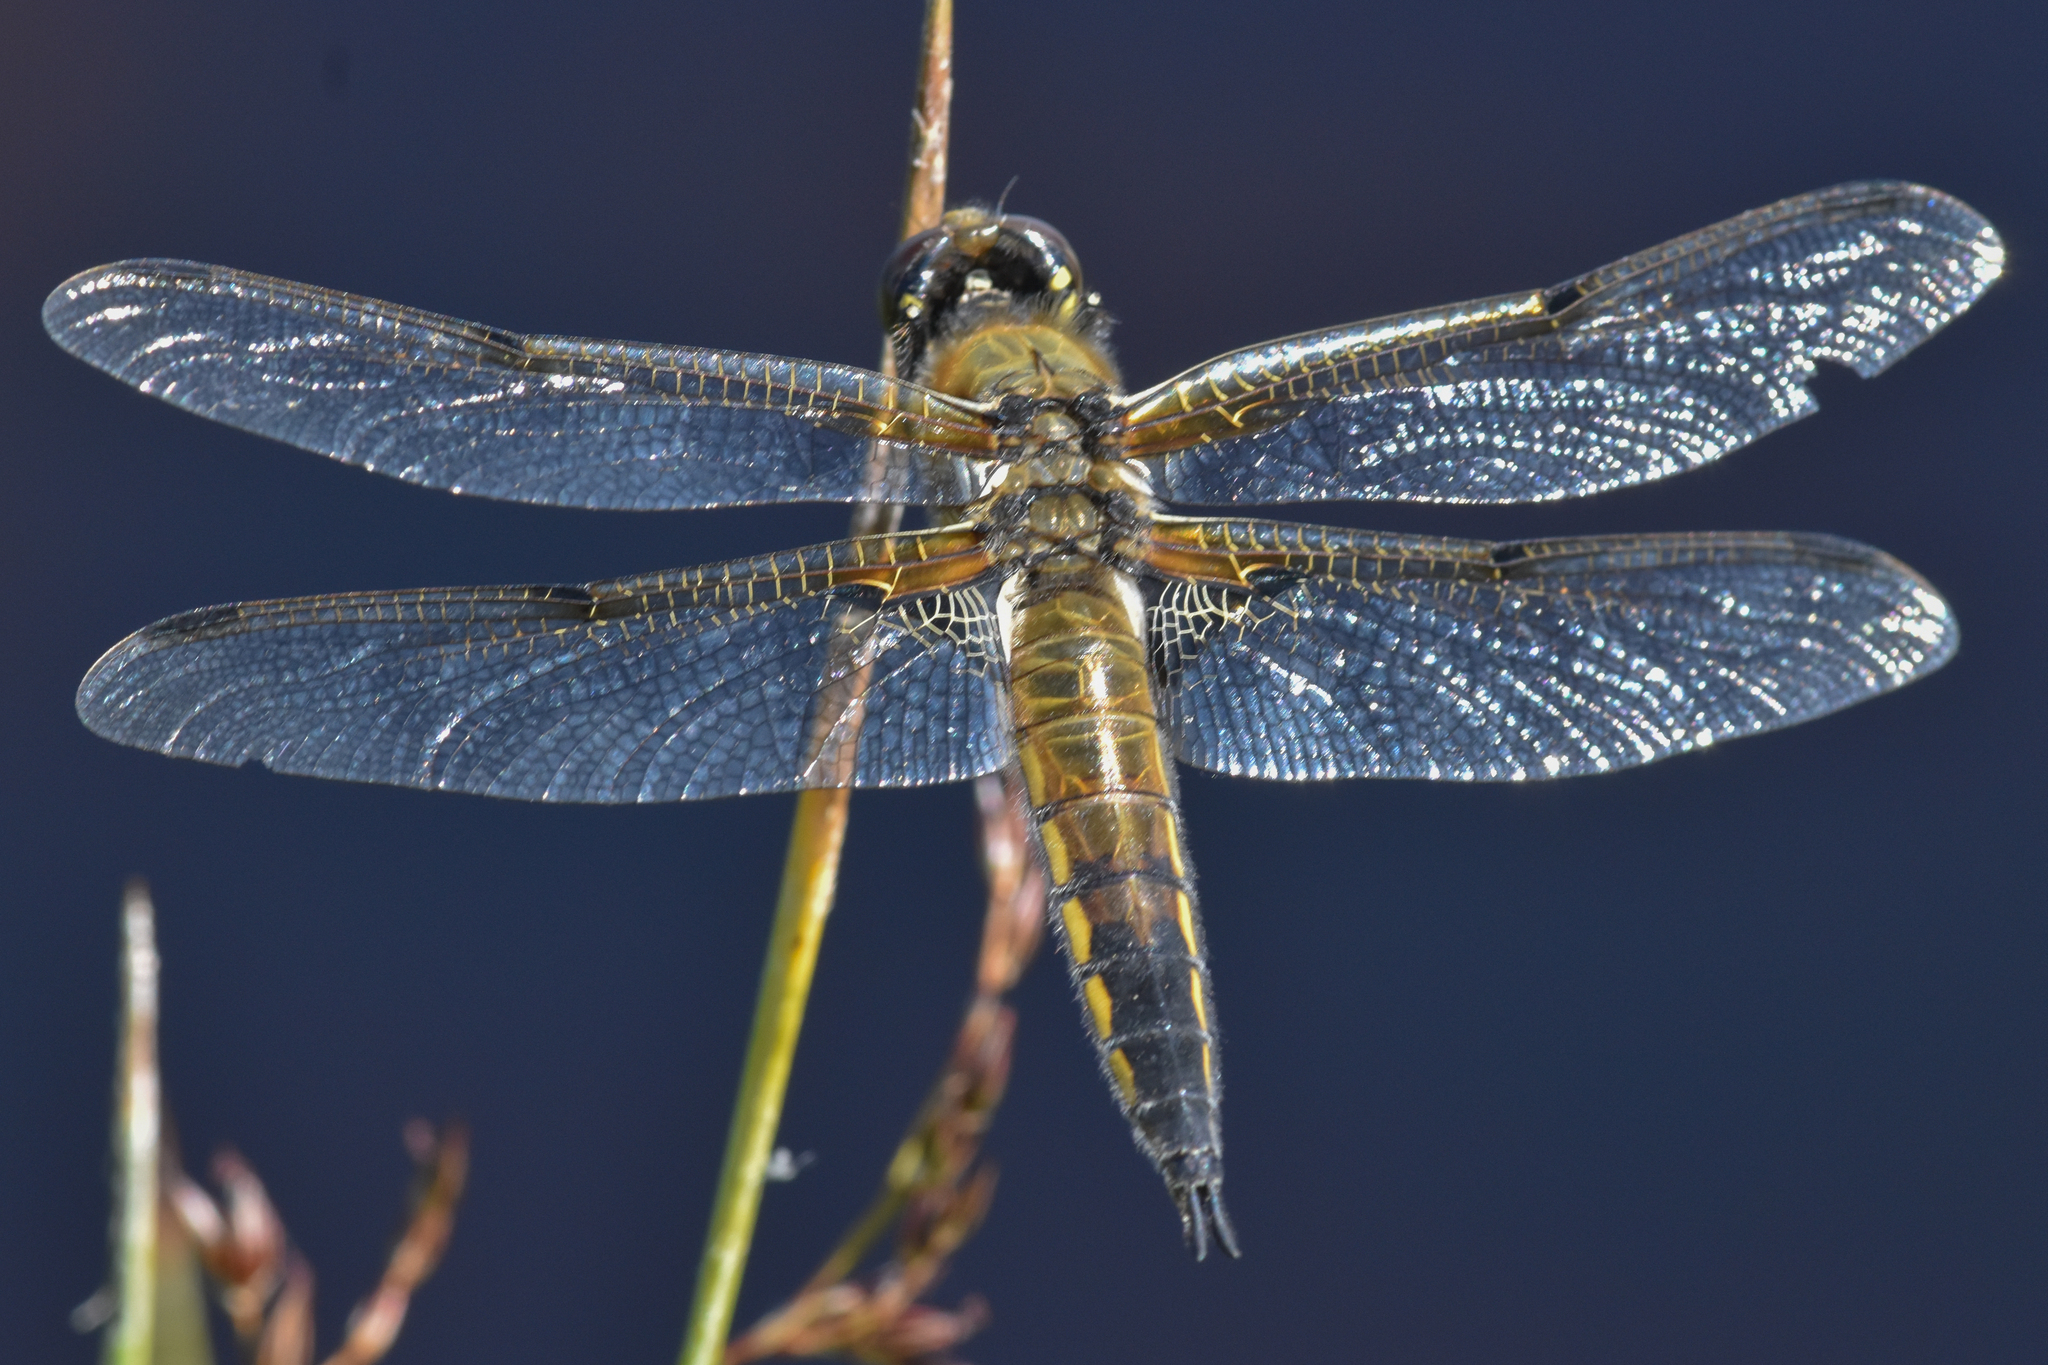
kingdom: Animalia
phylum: Arthropoda
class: Insecta
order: Odonata
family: Libellulidae
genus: Libellula
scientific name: Libellula quadrimaculata
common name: Four-spotted chaser
